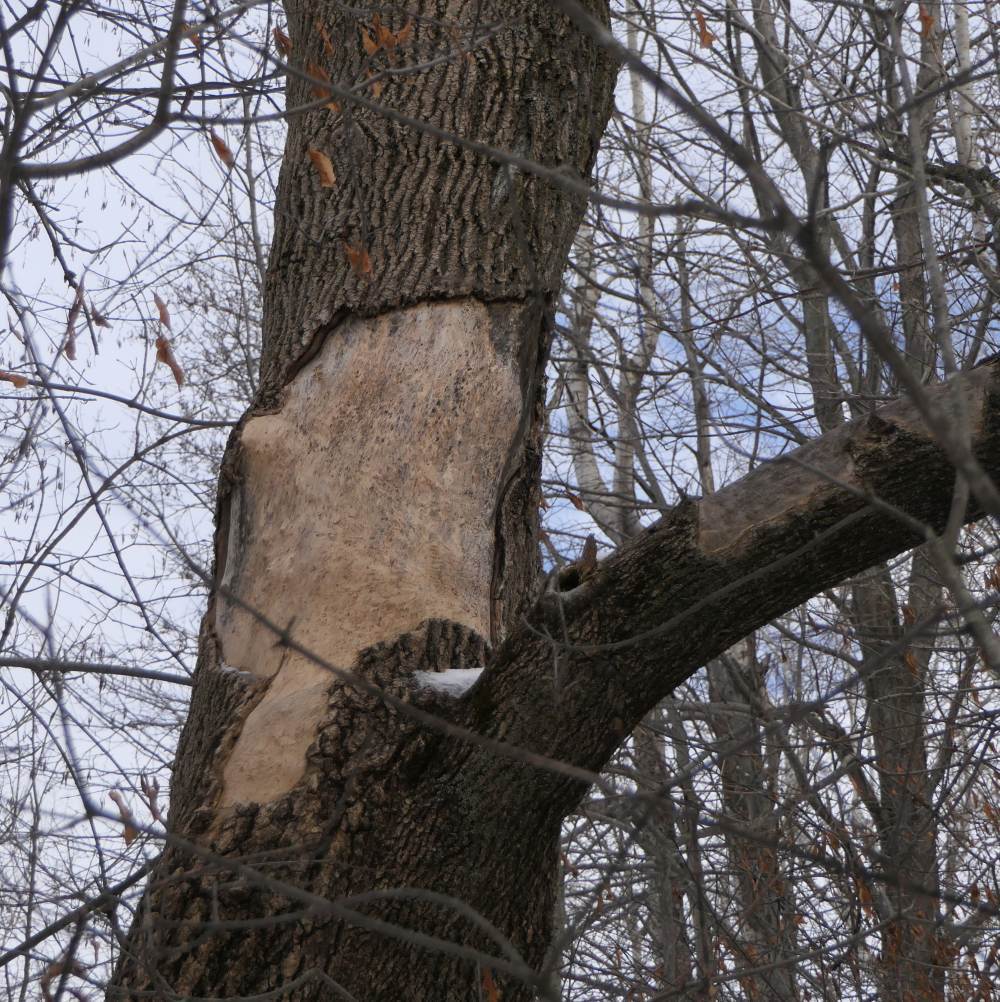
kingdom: Animalia
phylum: Chordata
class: Mammalia
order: Rodentia
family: Erethizontidae
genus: Erethizon
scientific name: Erethizon dorsatus
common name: North american porcupine
